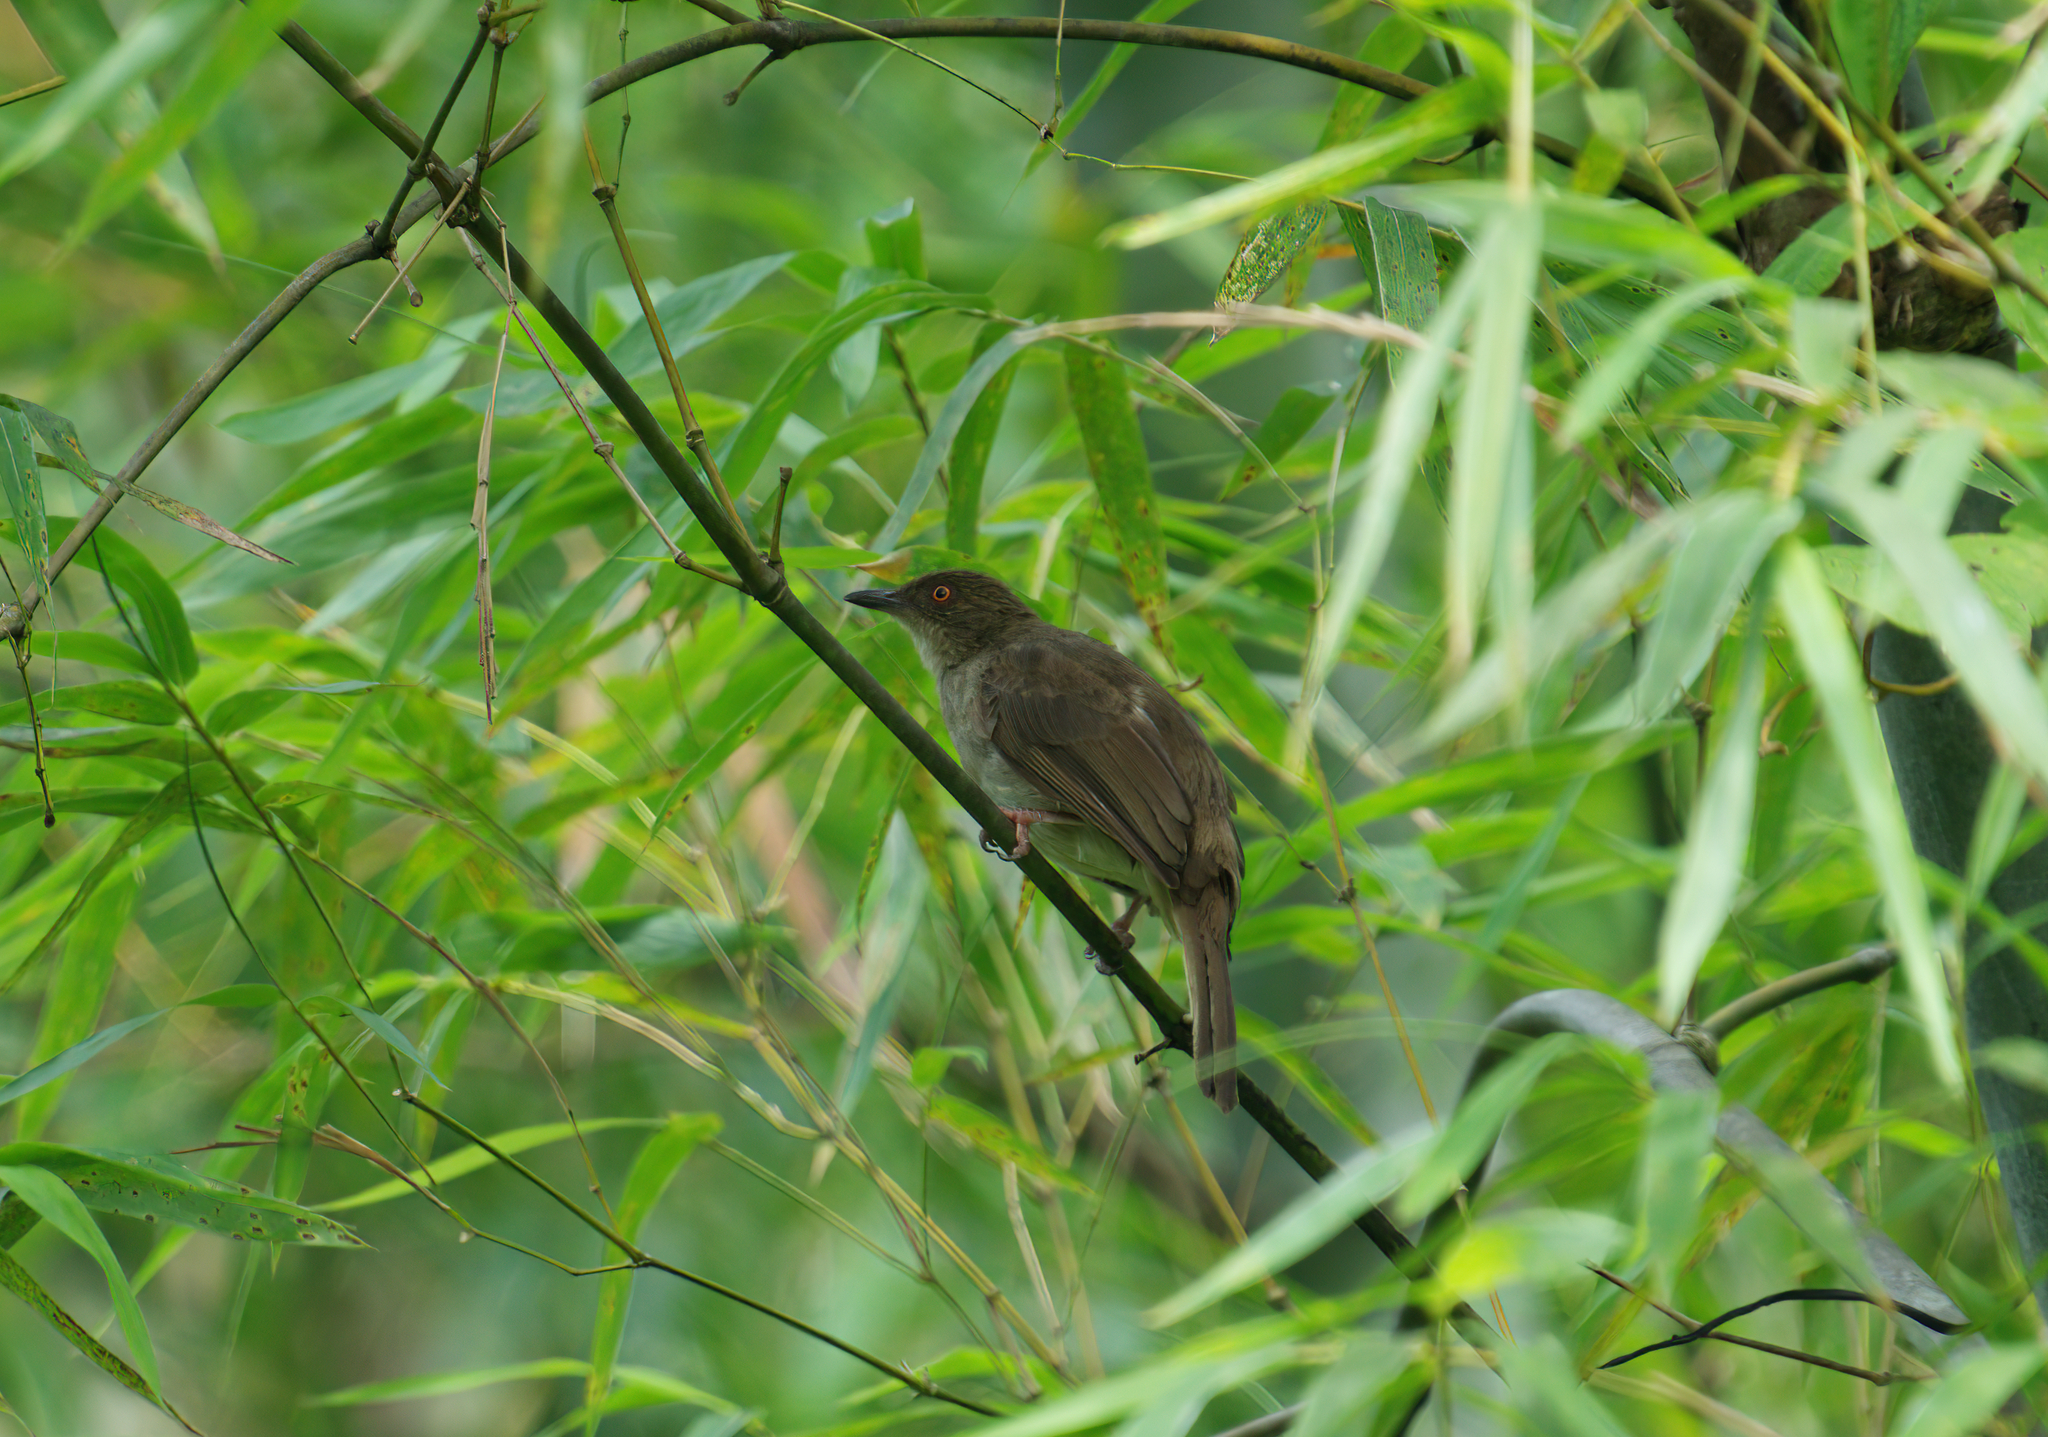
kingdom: Animalia
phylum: Chordata
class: Aves
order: Passeriformes
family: Pycnonotidae
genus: Pycnonotus
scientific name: Pycnonotus brunneus
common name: Asian red-eyed bulbul
